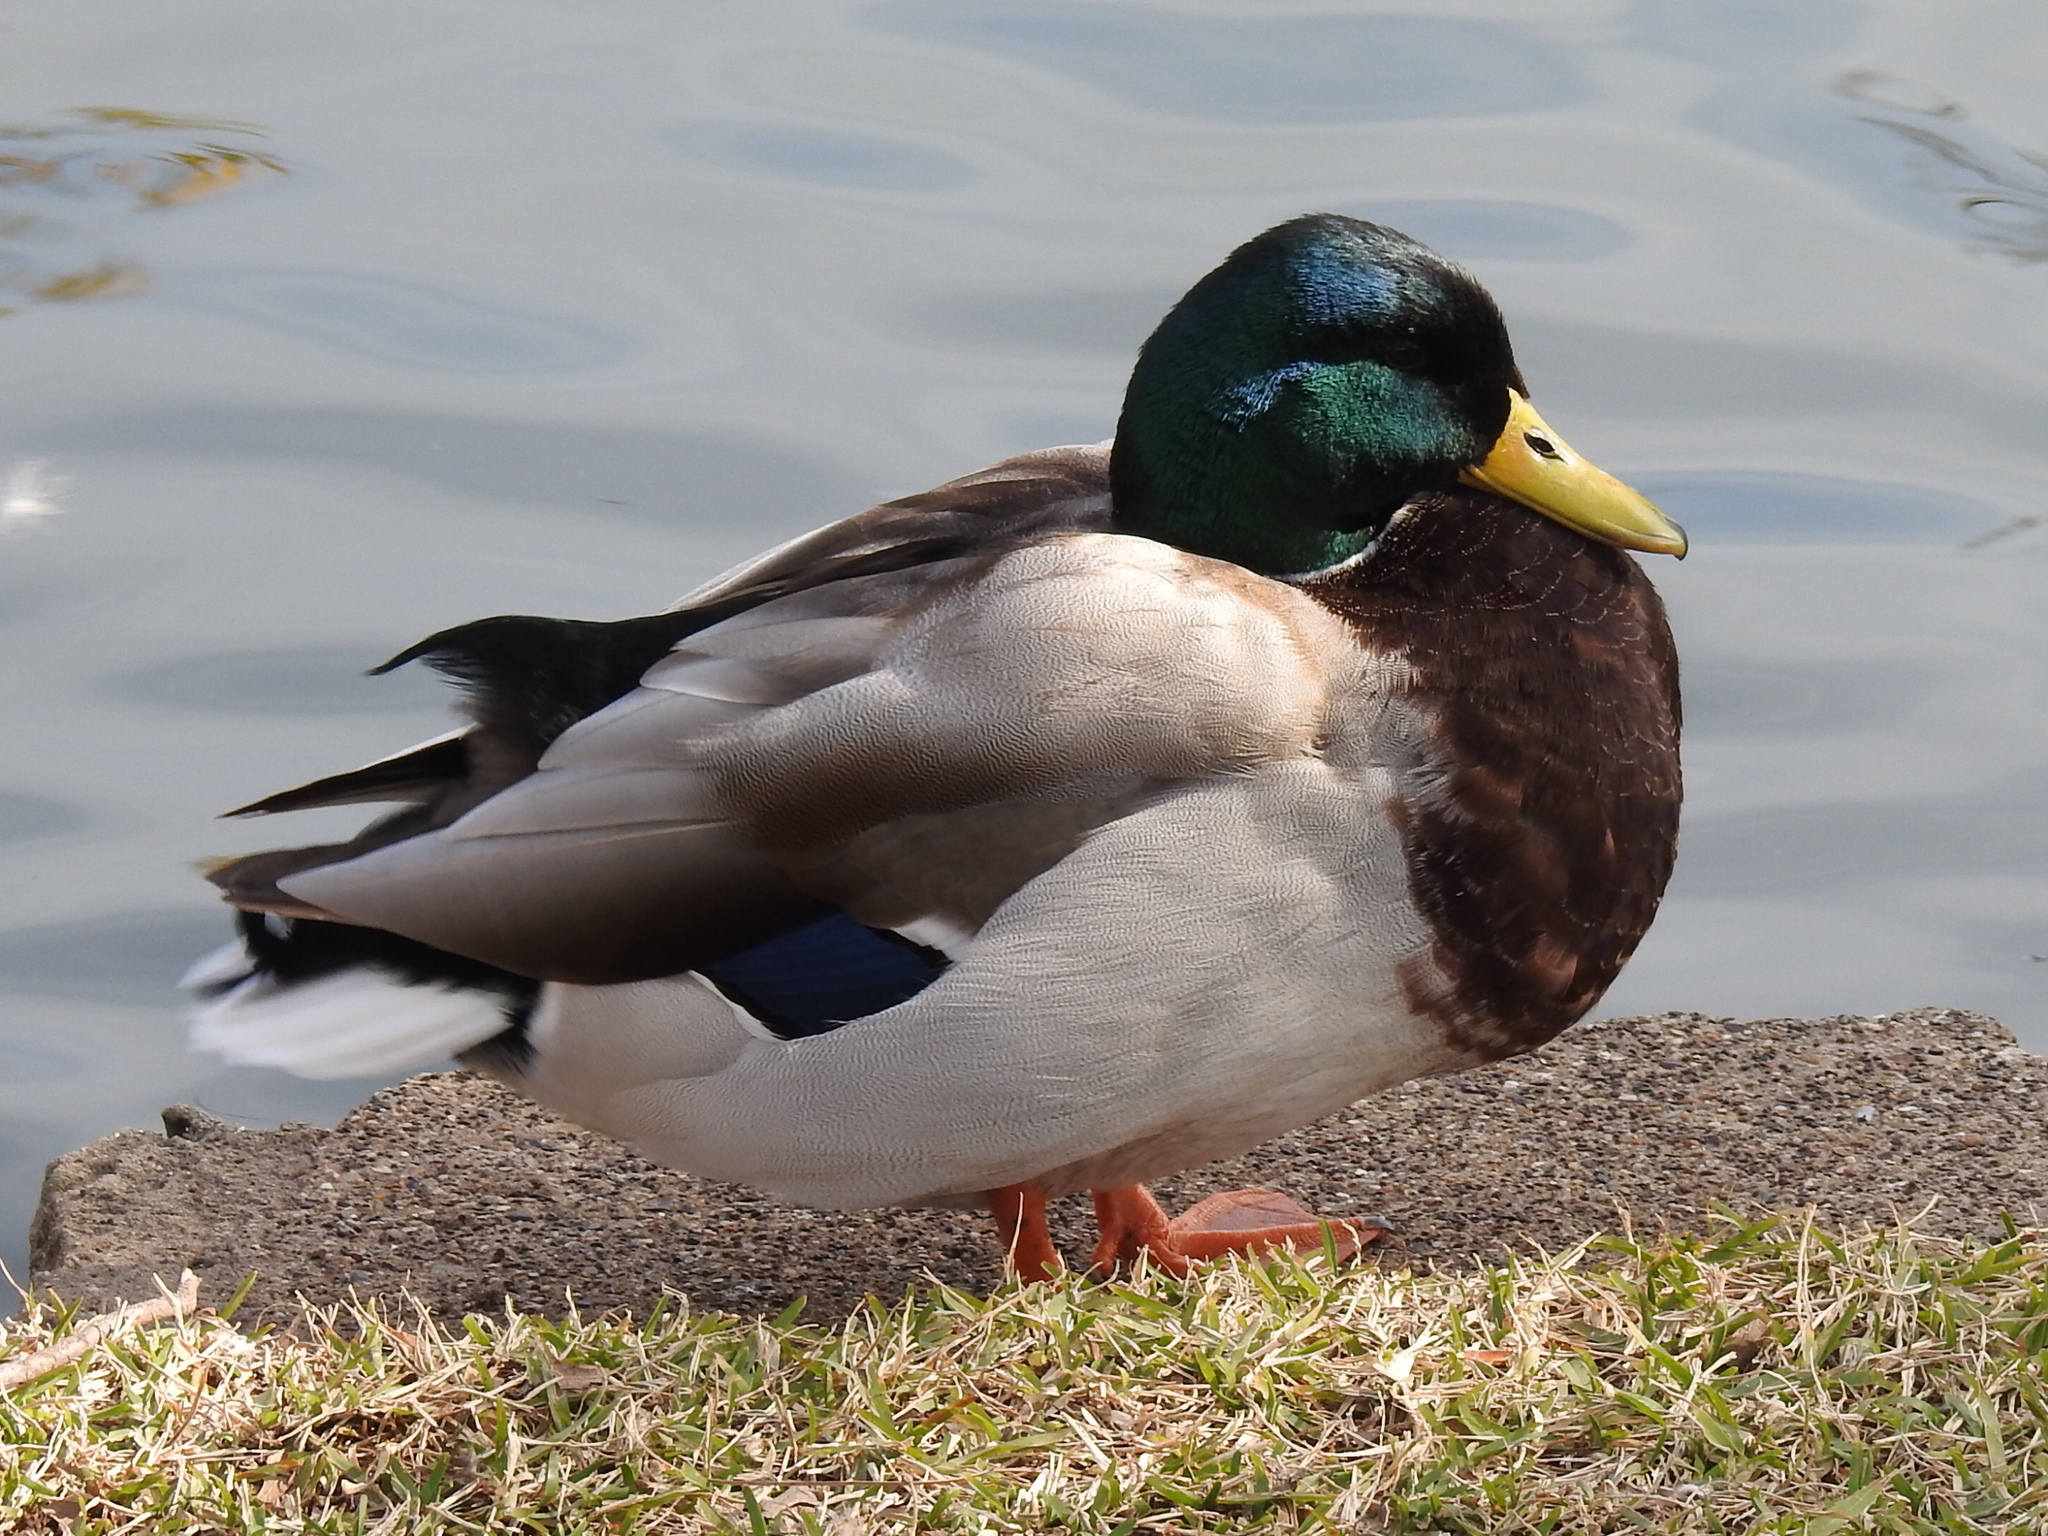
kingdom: Animalia
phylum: Chordata
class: Aves
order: Anseriformes
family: Anatidae
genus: Anas
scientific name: Anas platyrhynchos
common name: Mallard
